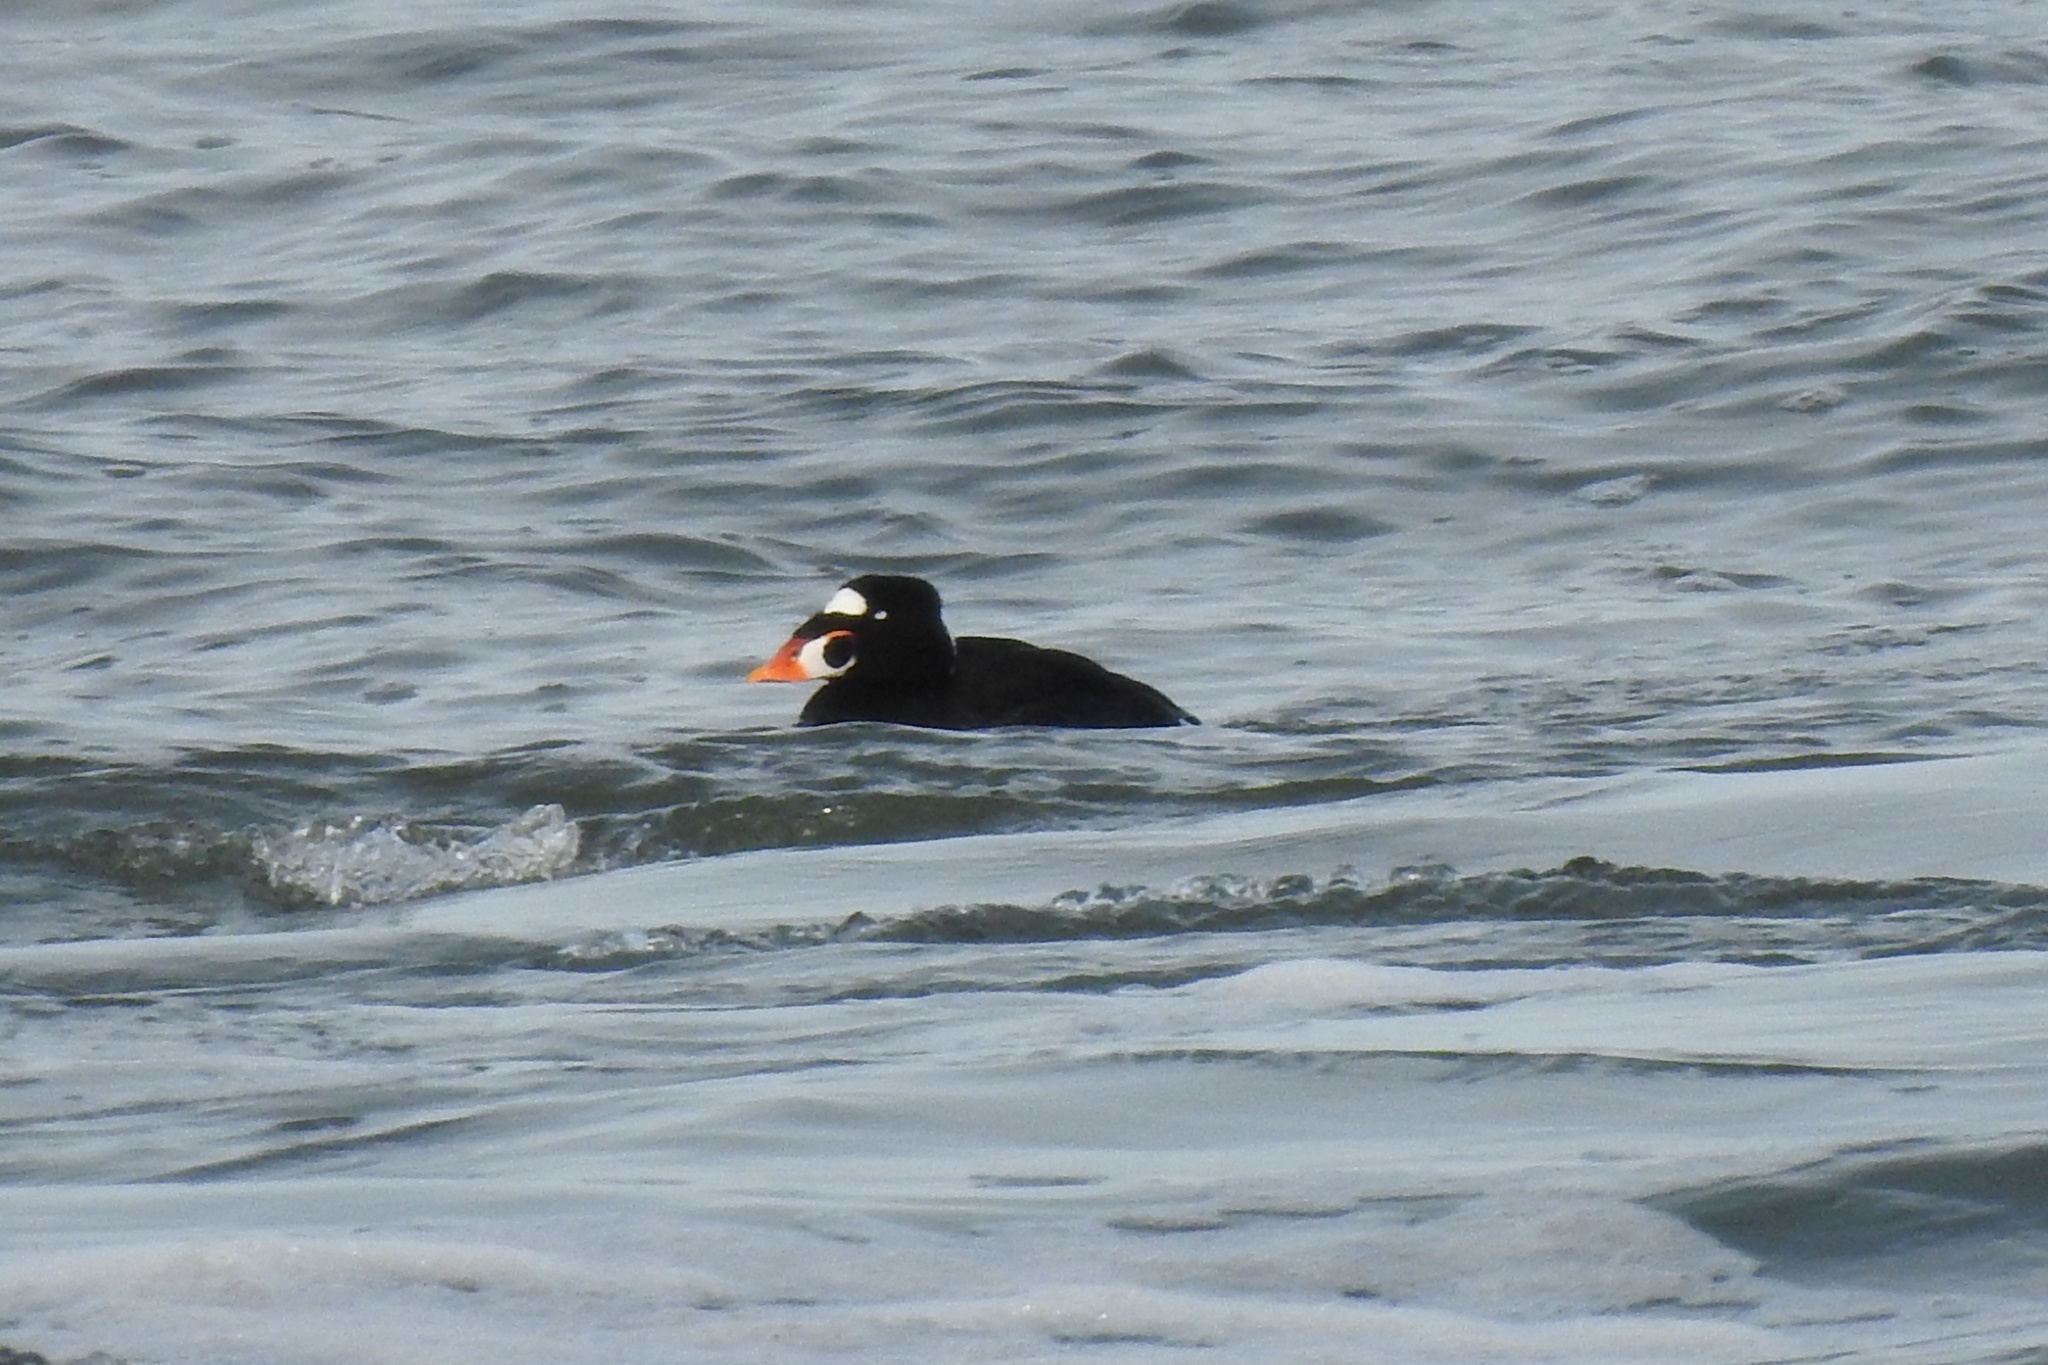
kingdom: Animalia
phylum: Chordata
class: Aves
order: Anseriformes
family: Anatidae
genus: Melanitta
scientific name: Melanitta perspicillata
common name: Surf scoter
